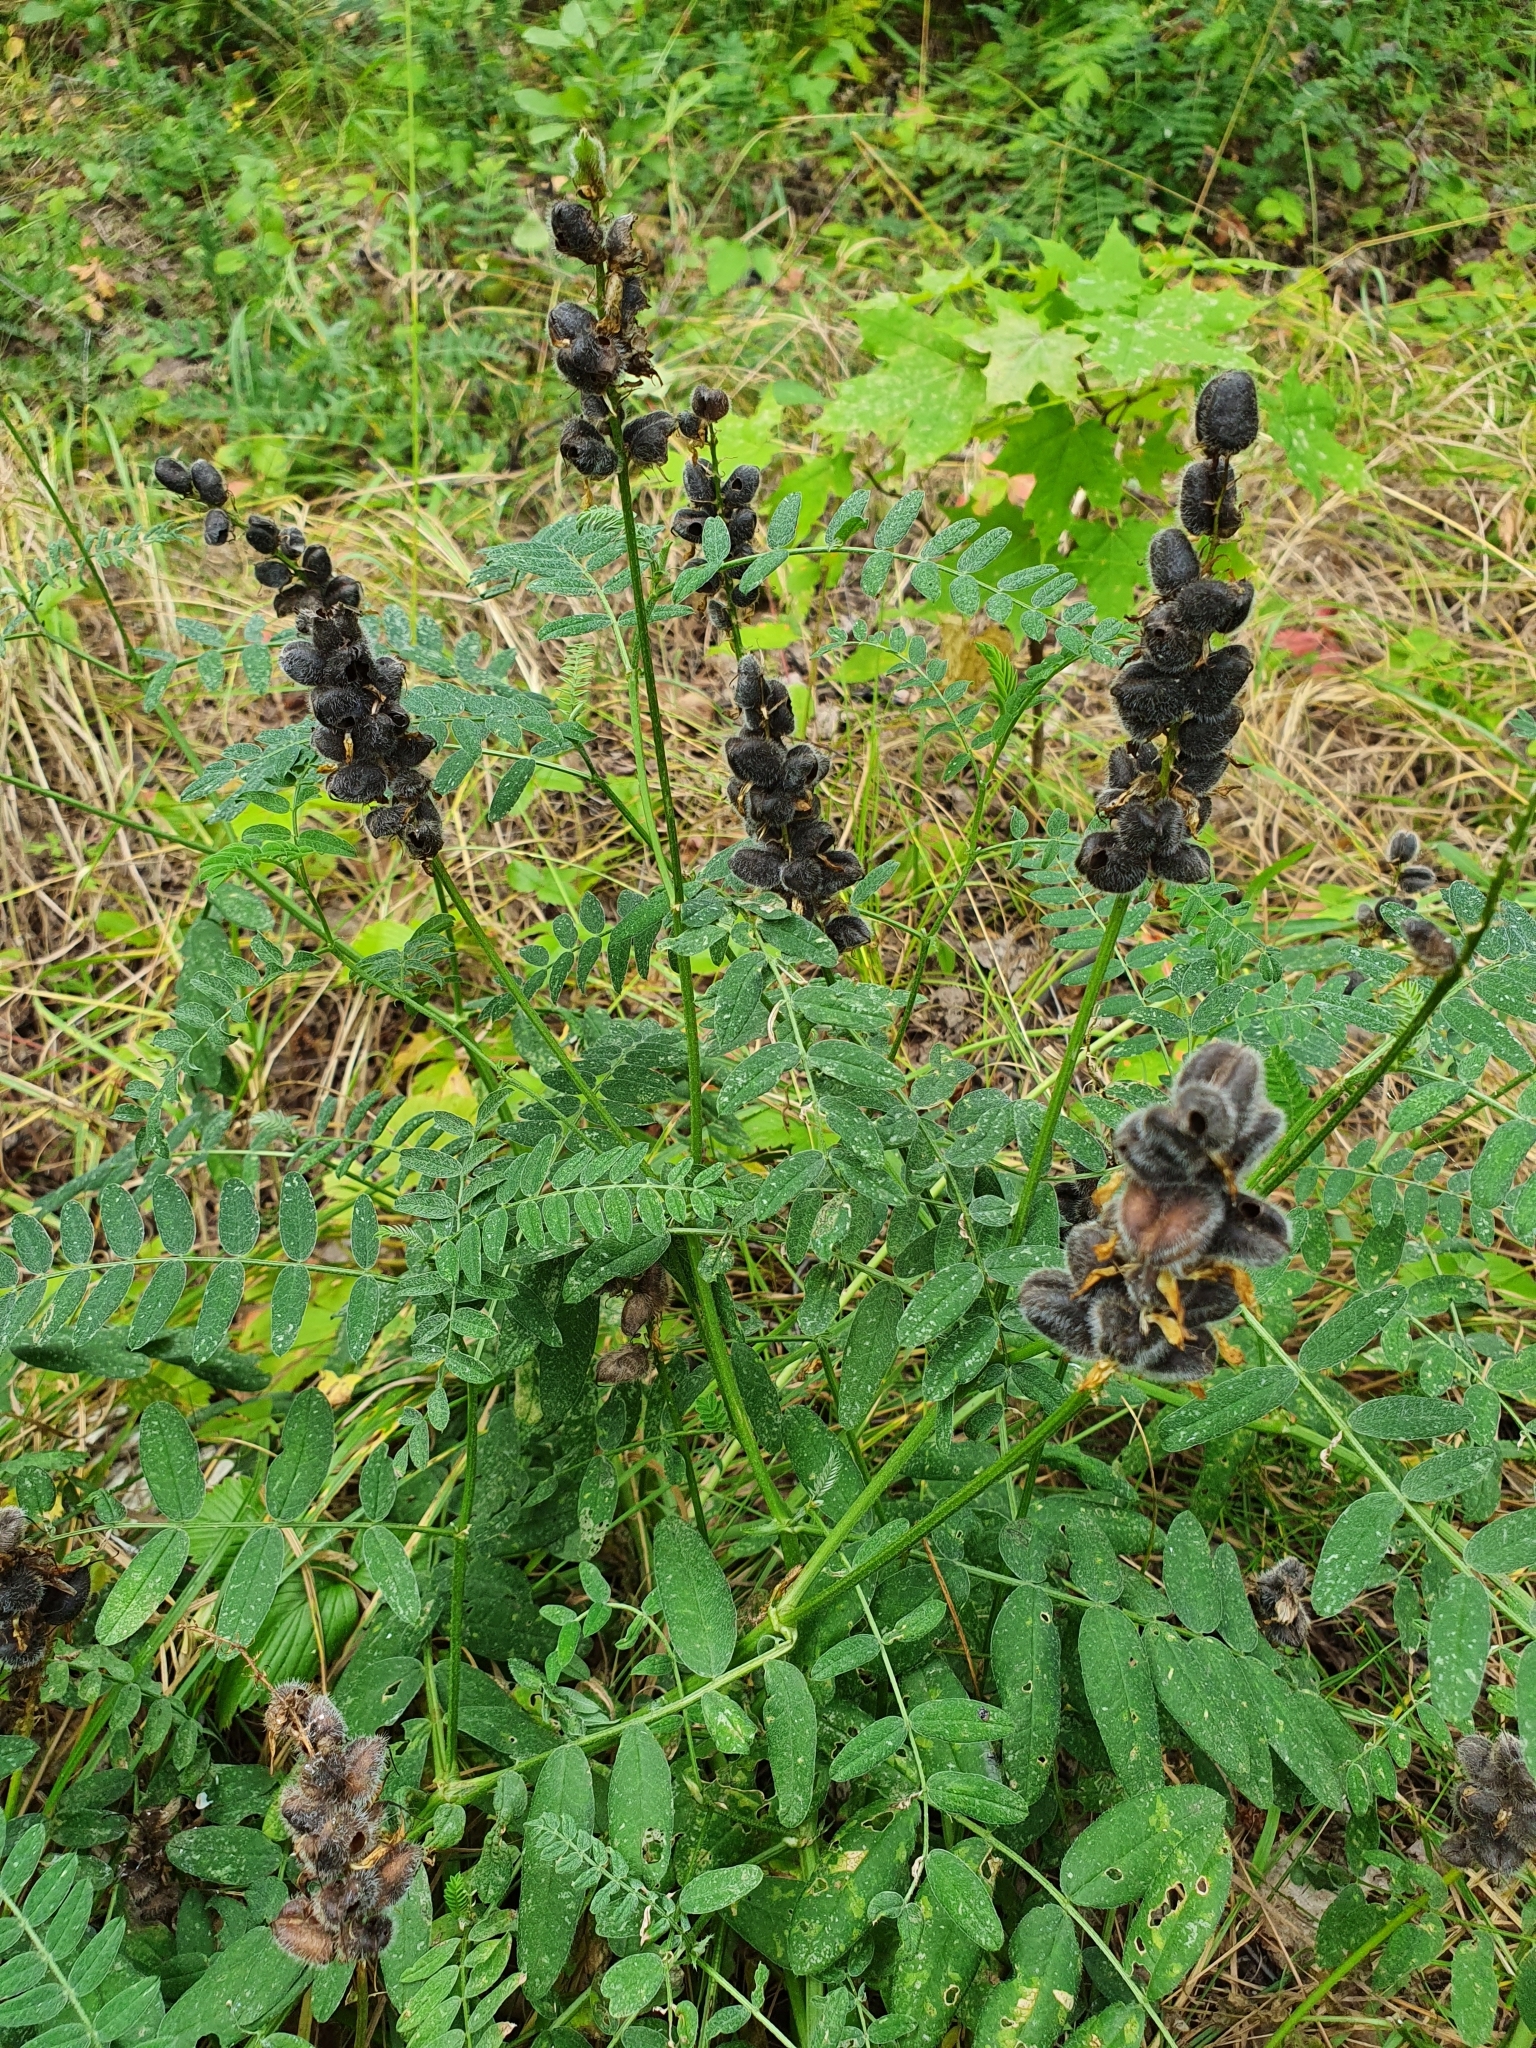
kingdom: Plantae
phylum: Tracheophyta
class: Magnoliopsida
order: Fabales
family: Fabaceae
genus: Astragalus
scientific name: Astragalus cicer
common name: Chick-pea milk-vetch
